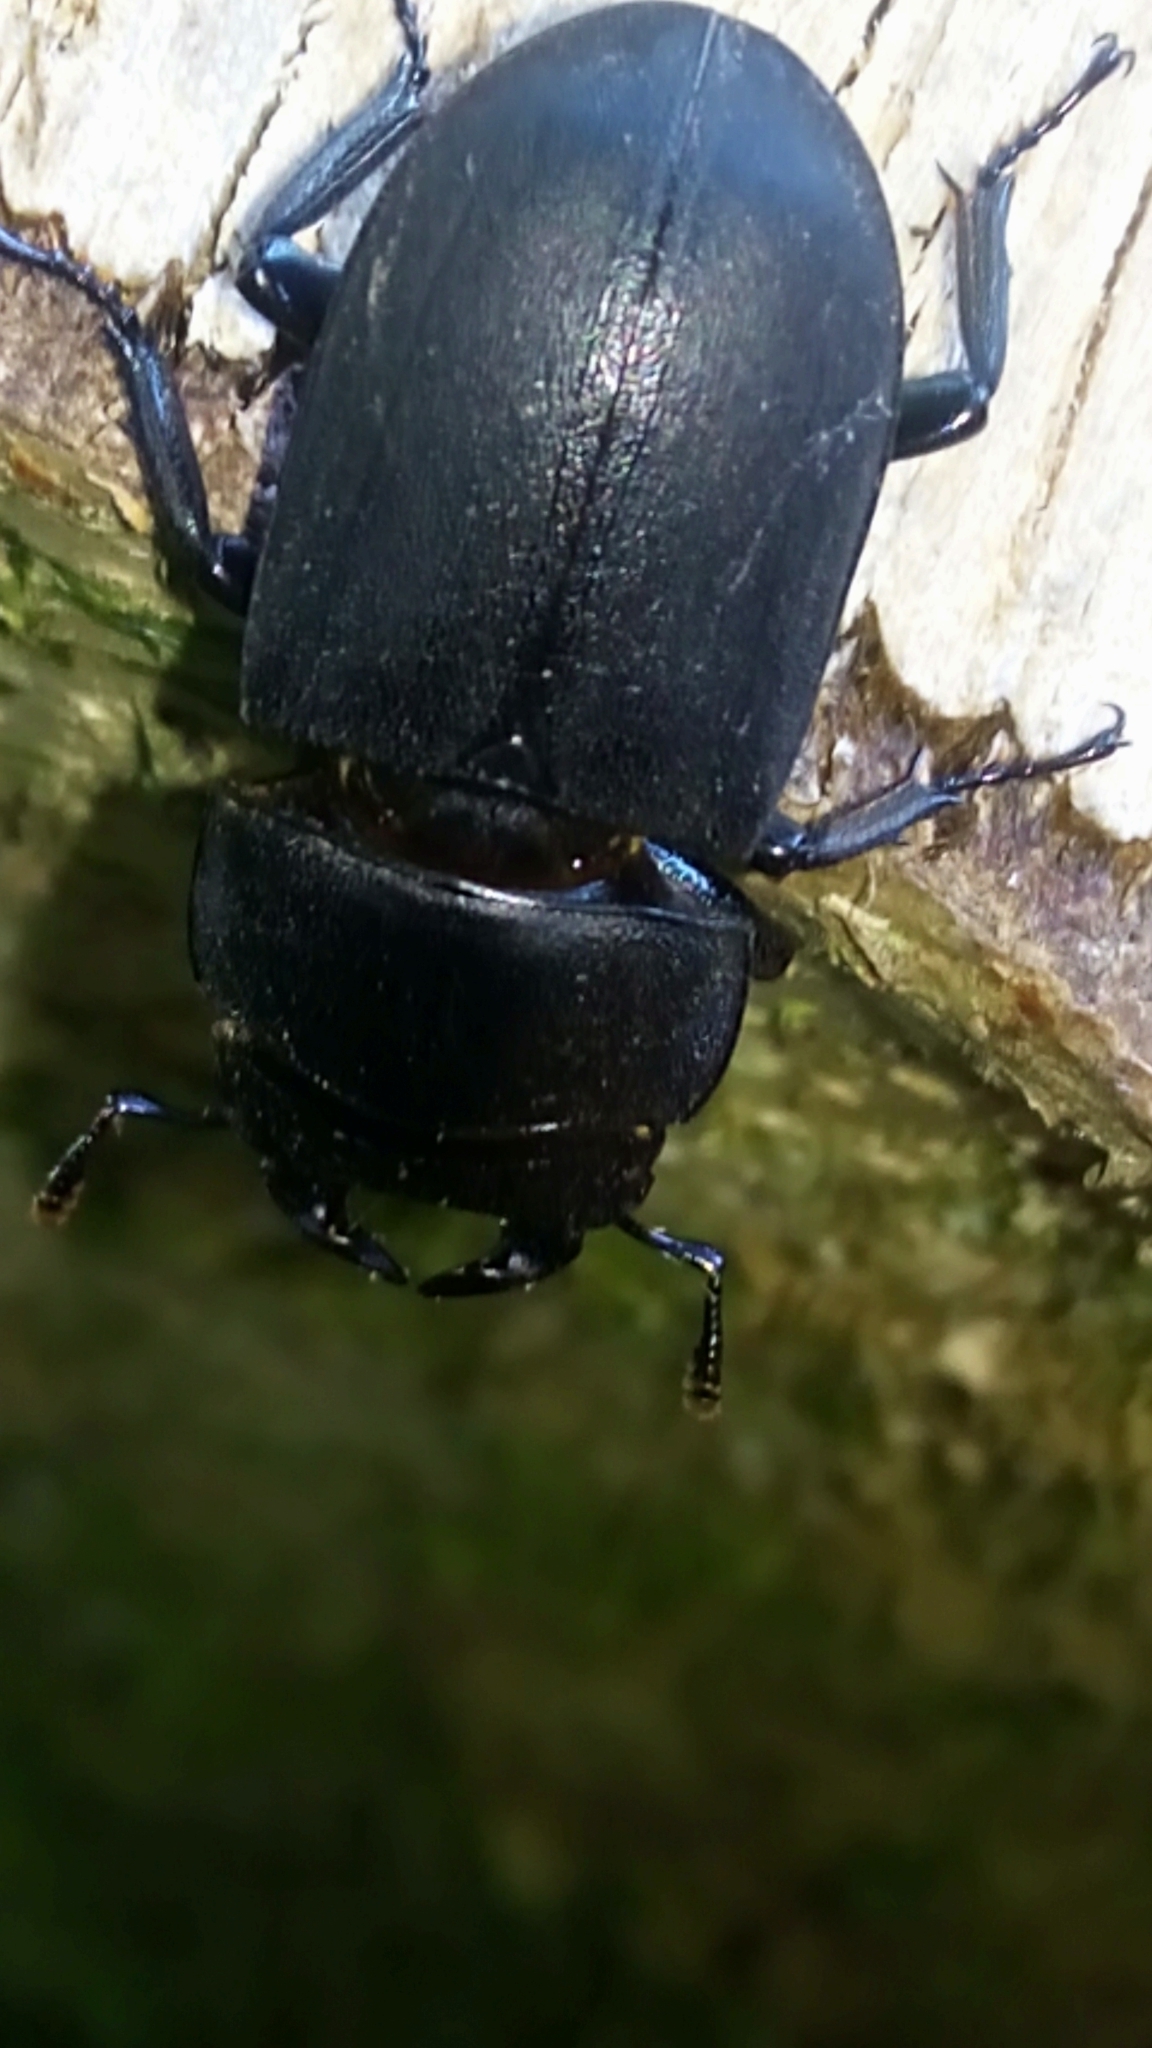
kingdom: Animalia
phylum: Arthropoda
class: Insecta
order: Coleoptera
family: Lucanidae
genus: Dorcus
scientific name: Dorcus parallelipipedus
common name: Lesser stag beetle
